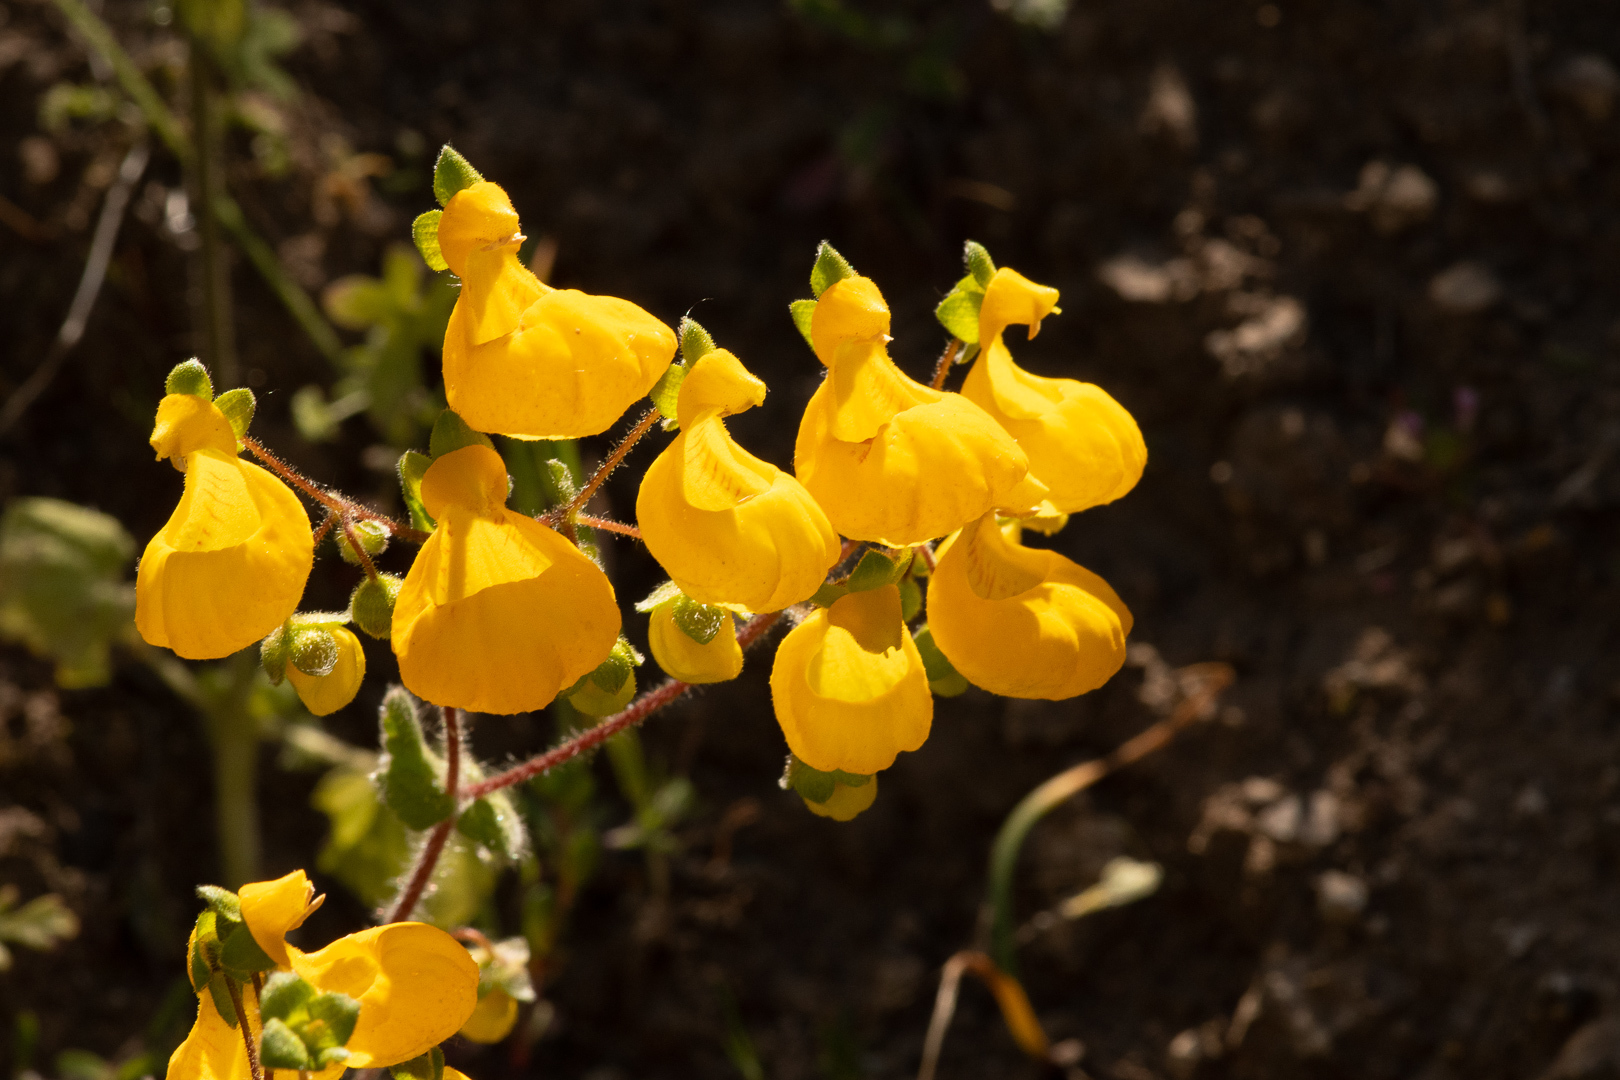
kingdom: Plantae
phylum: Tracheophyta
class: Magnoliopsida
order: Lamiales
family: Calceolariaceae
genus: Calceolaria
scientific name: Calceolaria corymbosa
